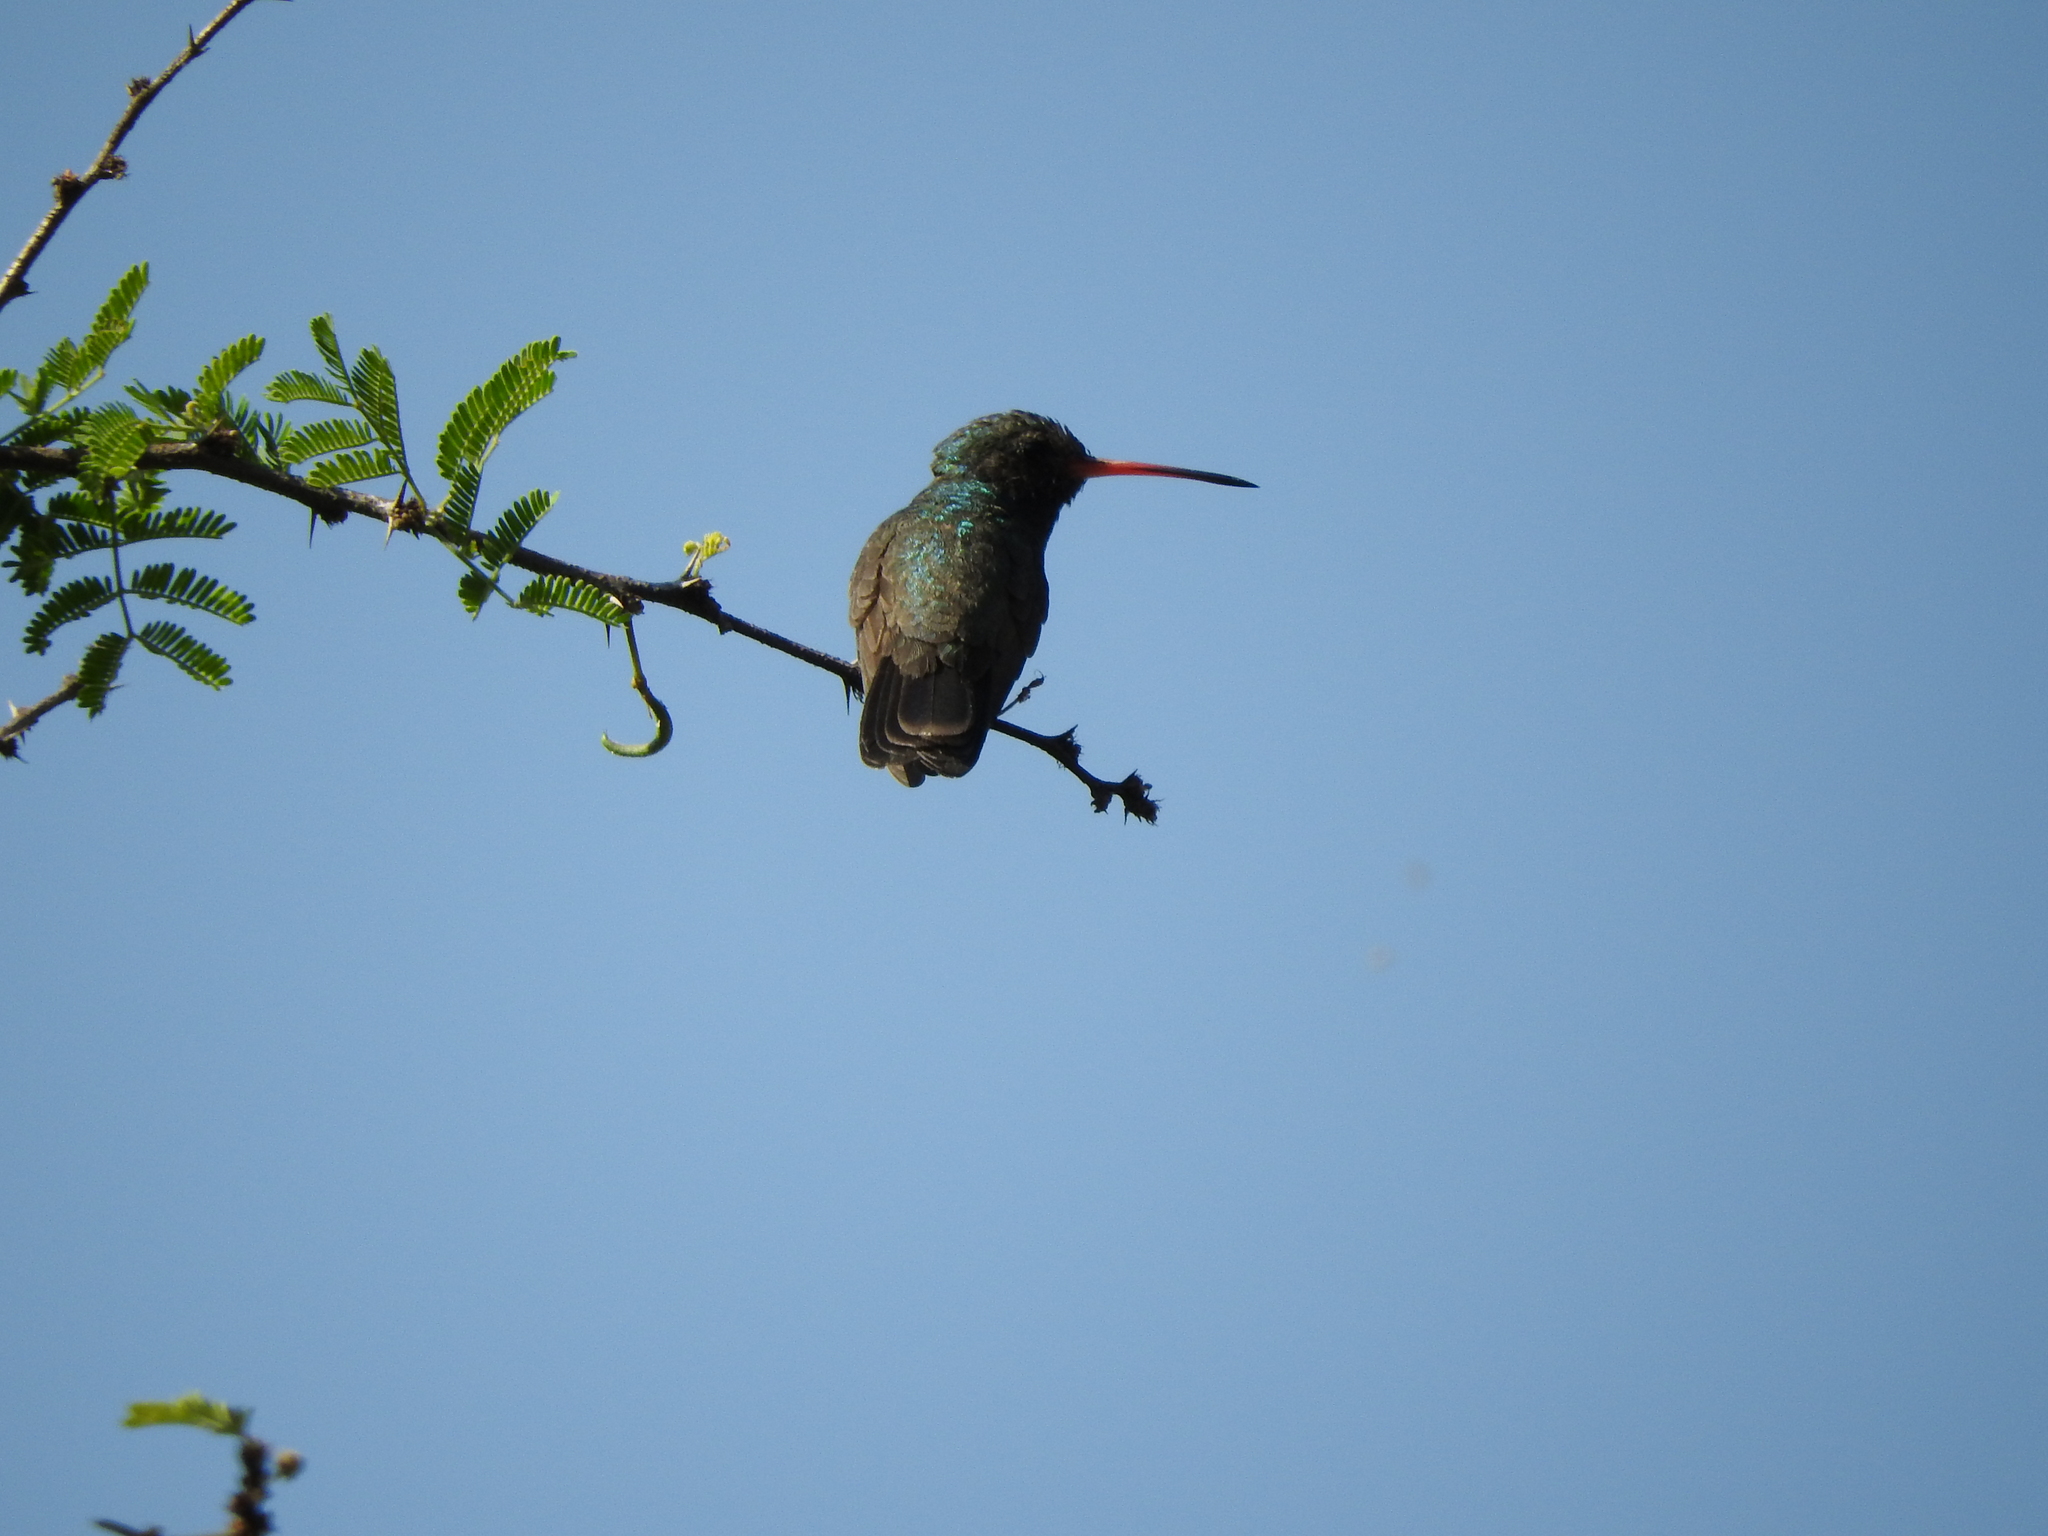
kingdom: Animalia
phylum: Chordata
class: Aves
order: Apodiformes
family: Trochilidae
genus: Cynanthus
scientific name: Cynanthus latirostris
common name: Broad-billed hummingbird
